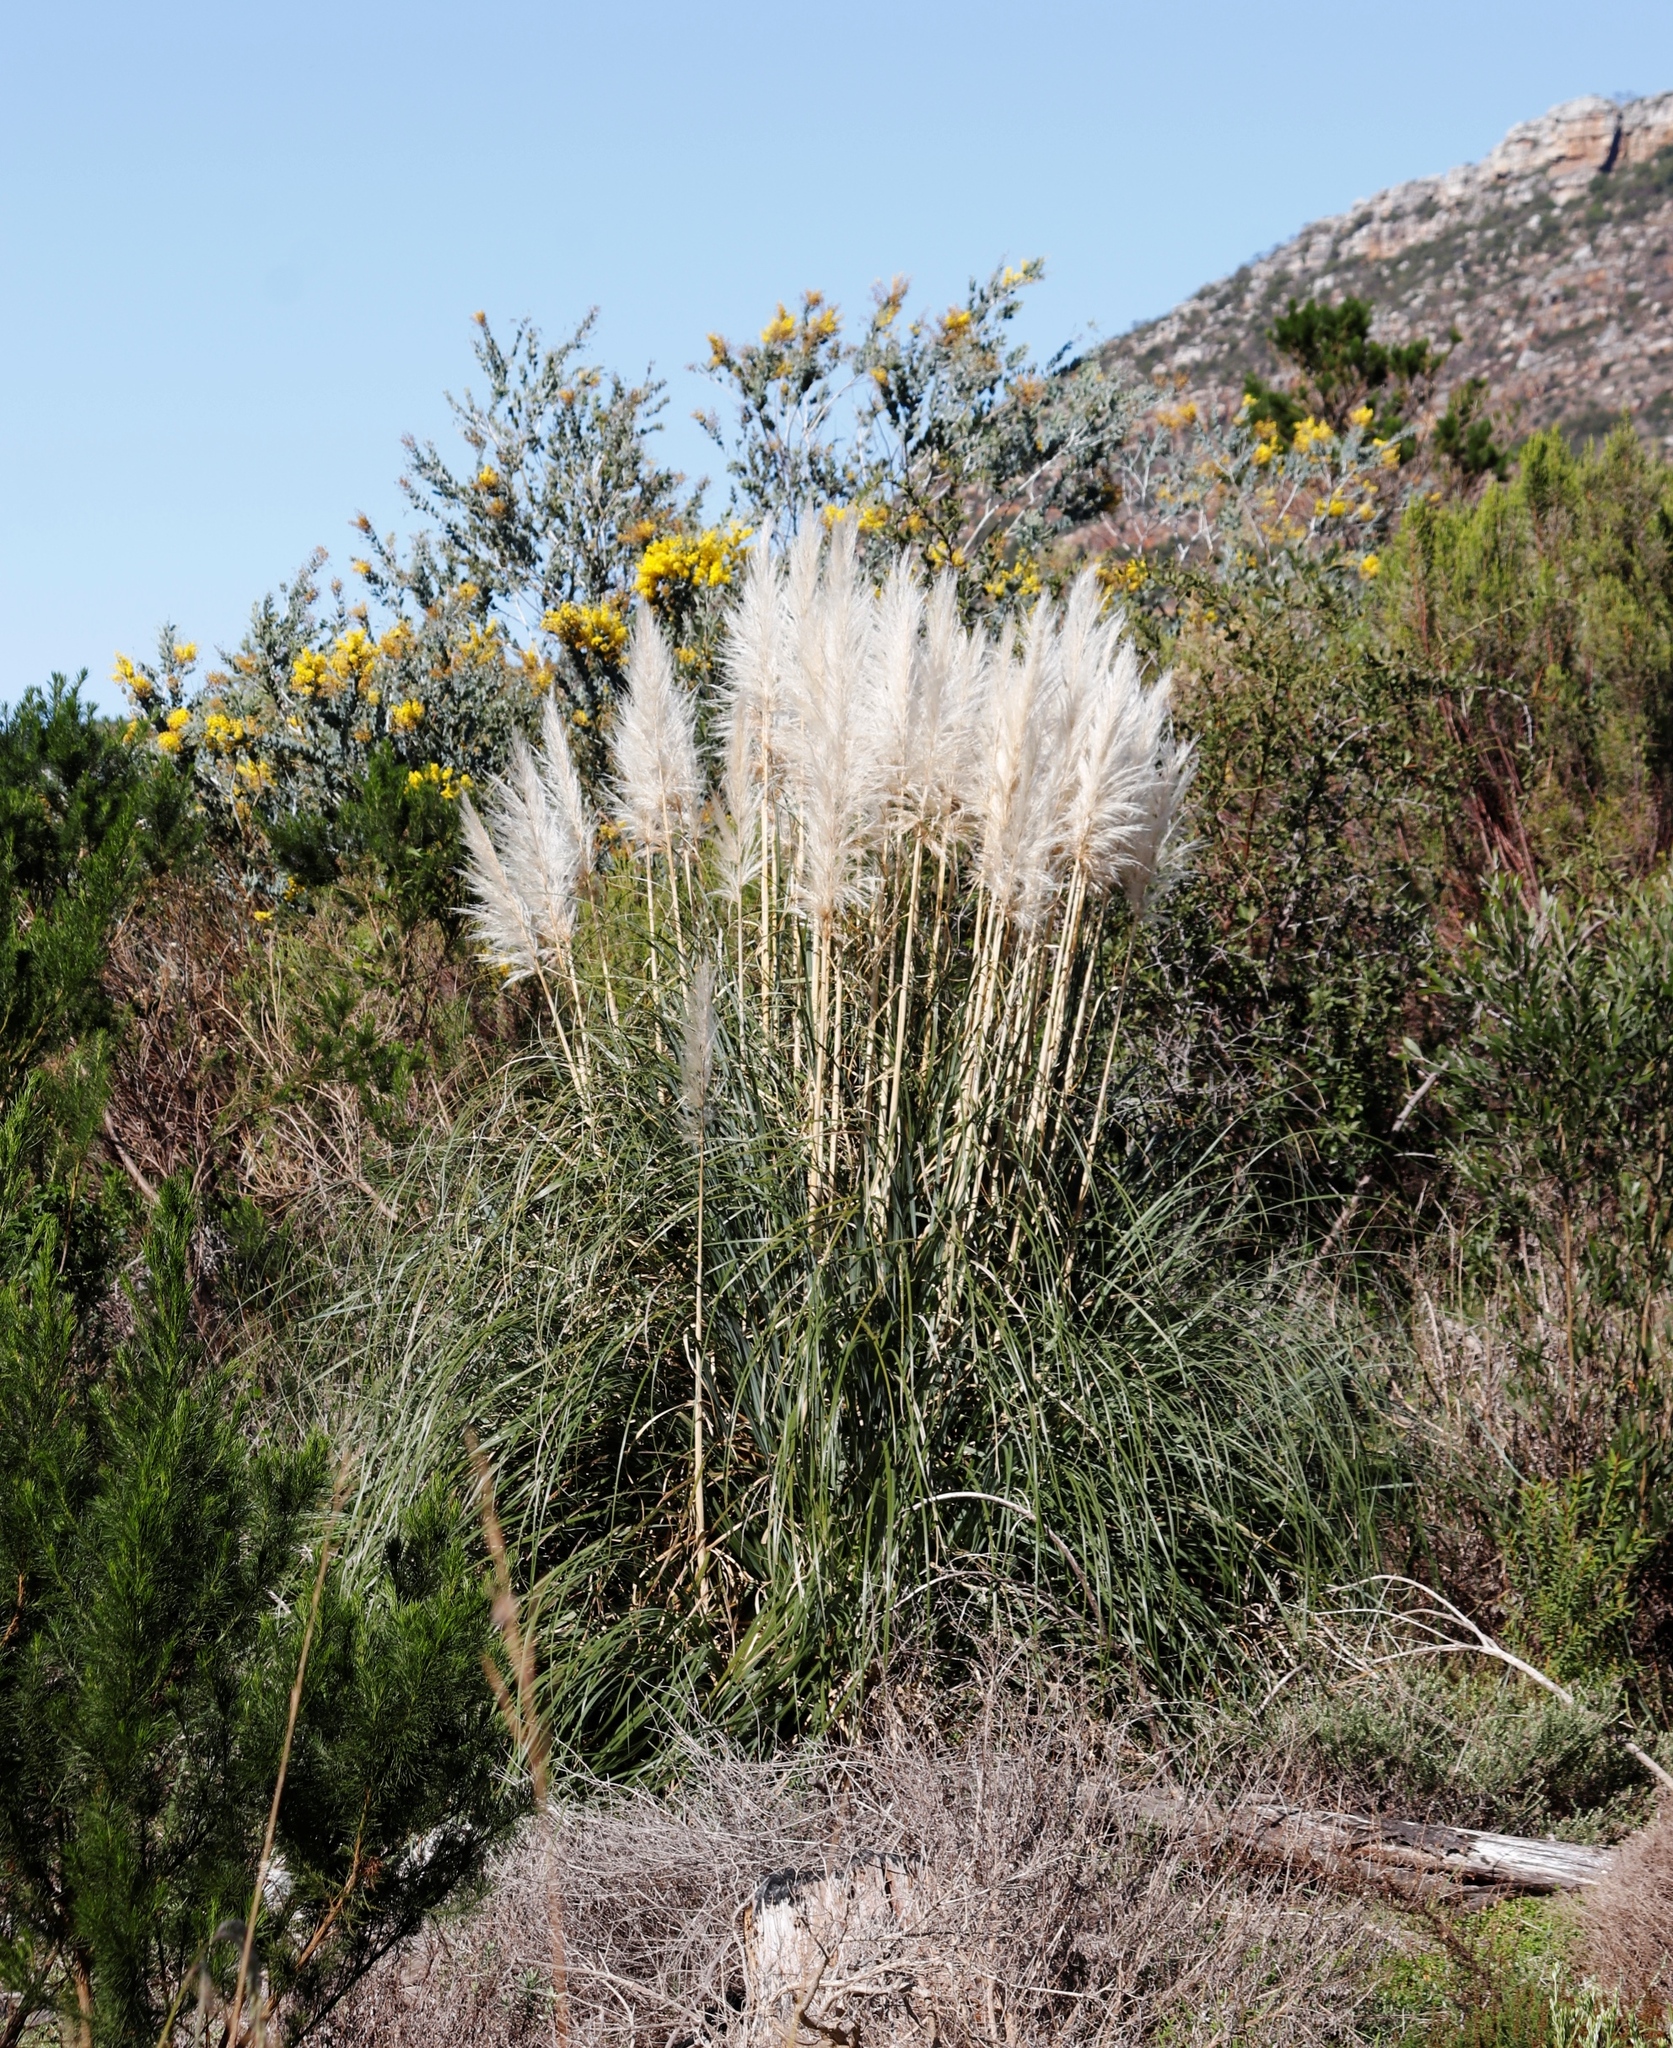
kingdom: Plantae
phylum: Tracheophyta
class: Liliopsida
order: Poales
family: Poaceae
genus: Cortaderia
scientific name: Cortaderia selloana
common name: Uruguayan pampas grass
